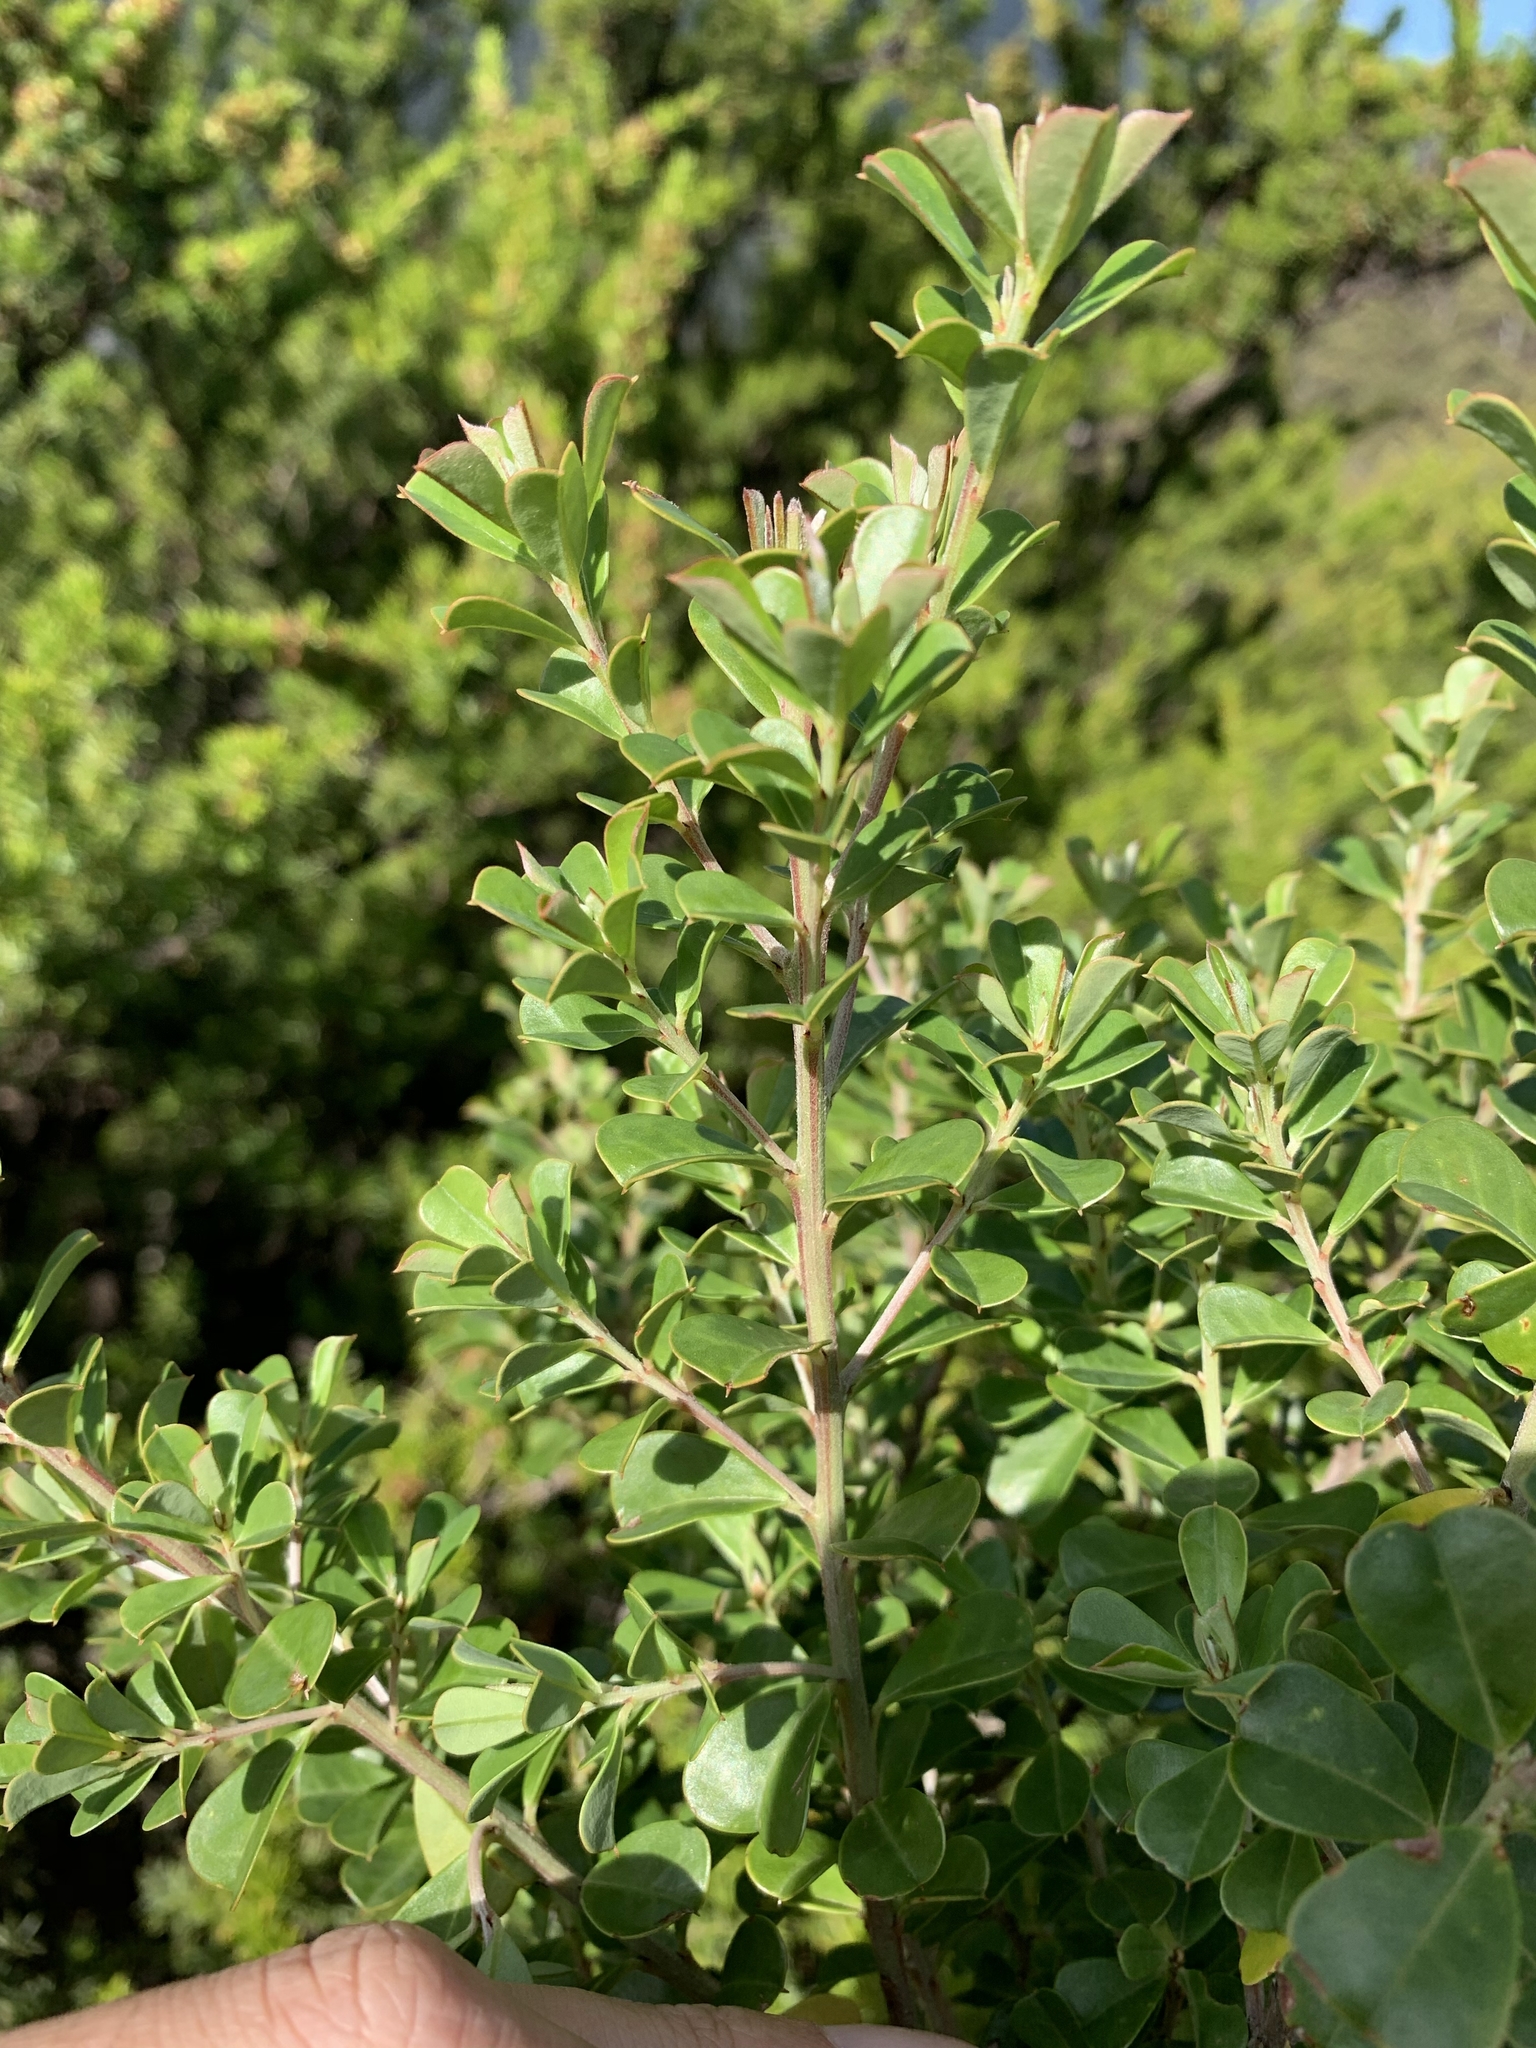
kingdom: Plantae
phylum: Tracheophyta
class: Magnoliopsida
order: Fabales
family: Fabaceae
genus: Pultenaea
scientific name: Pultenaea daphnoides
